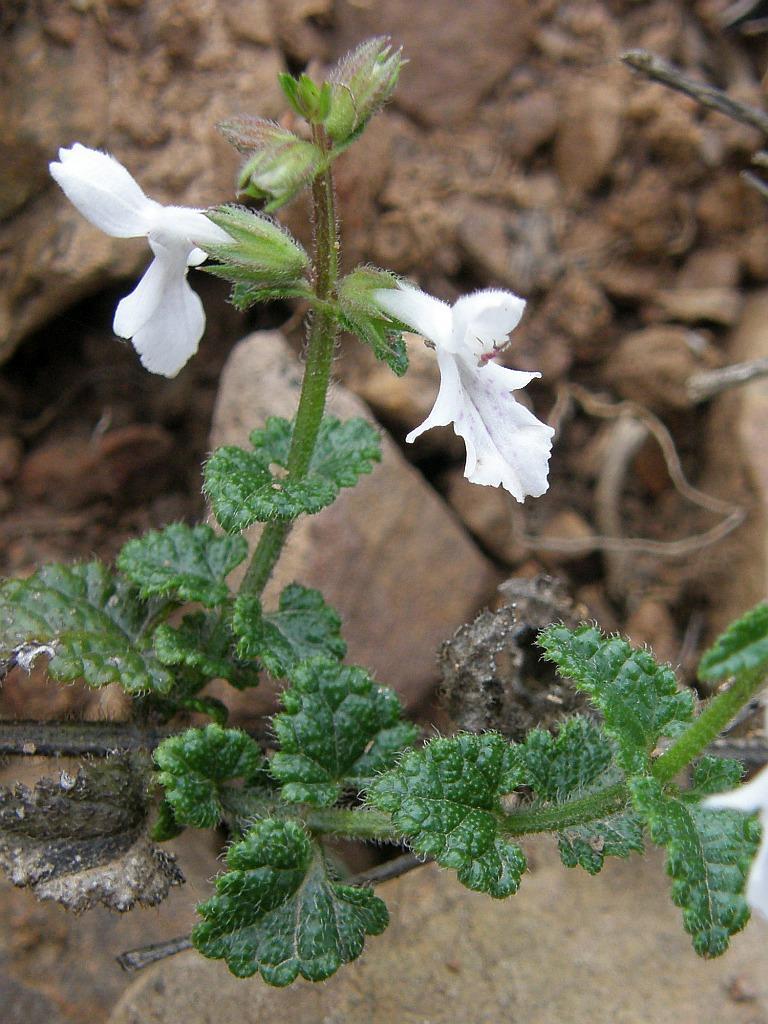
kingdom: Plantae
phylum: Tracheophyta
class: Magnoliopsida
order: Lamiales
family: Lamiaceae
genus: Stachys
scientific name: Stachys aethiopica
